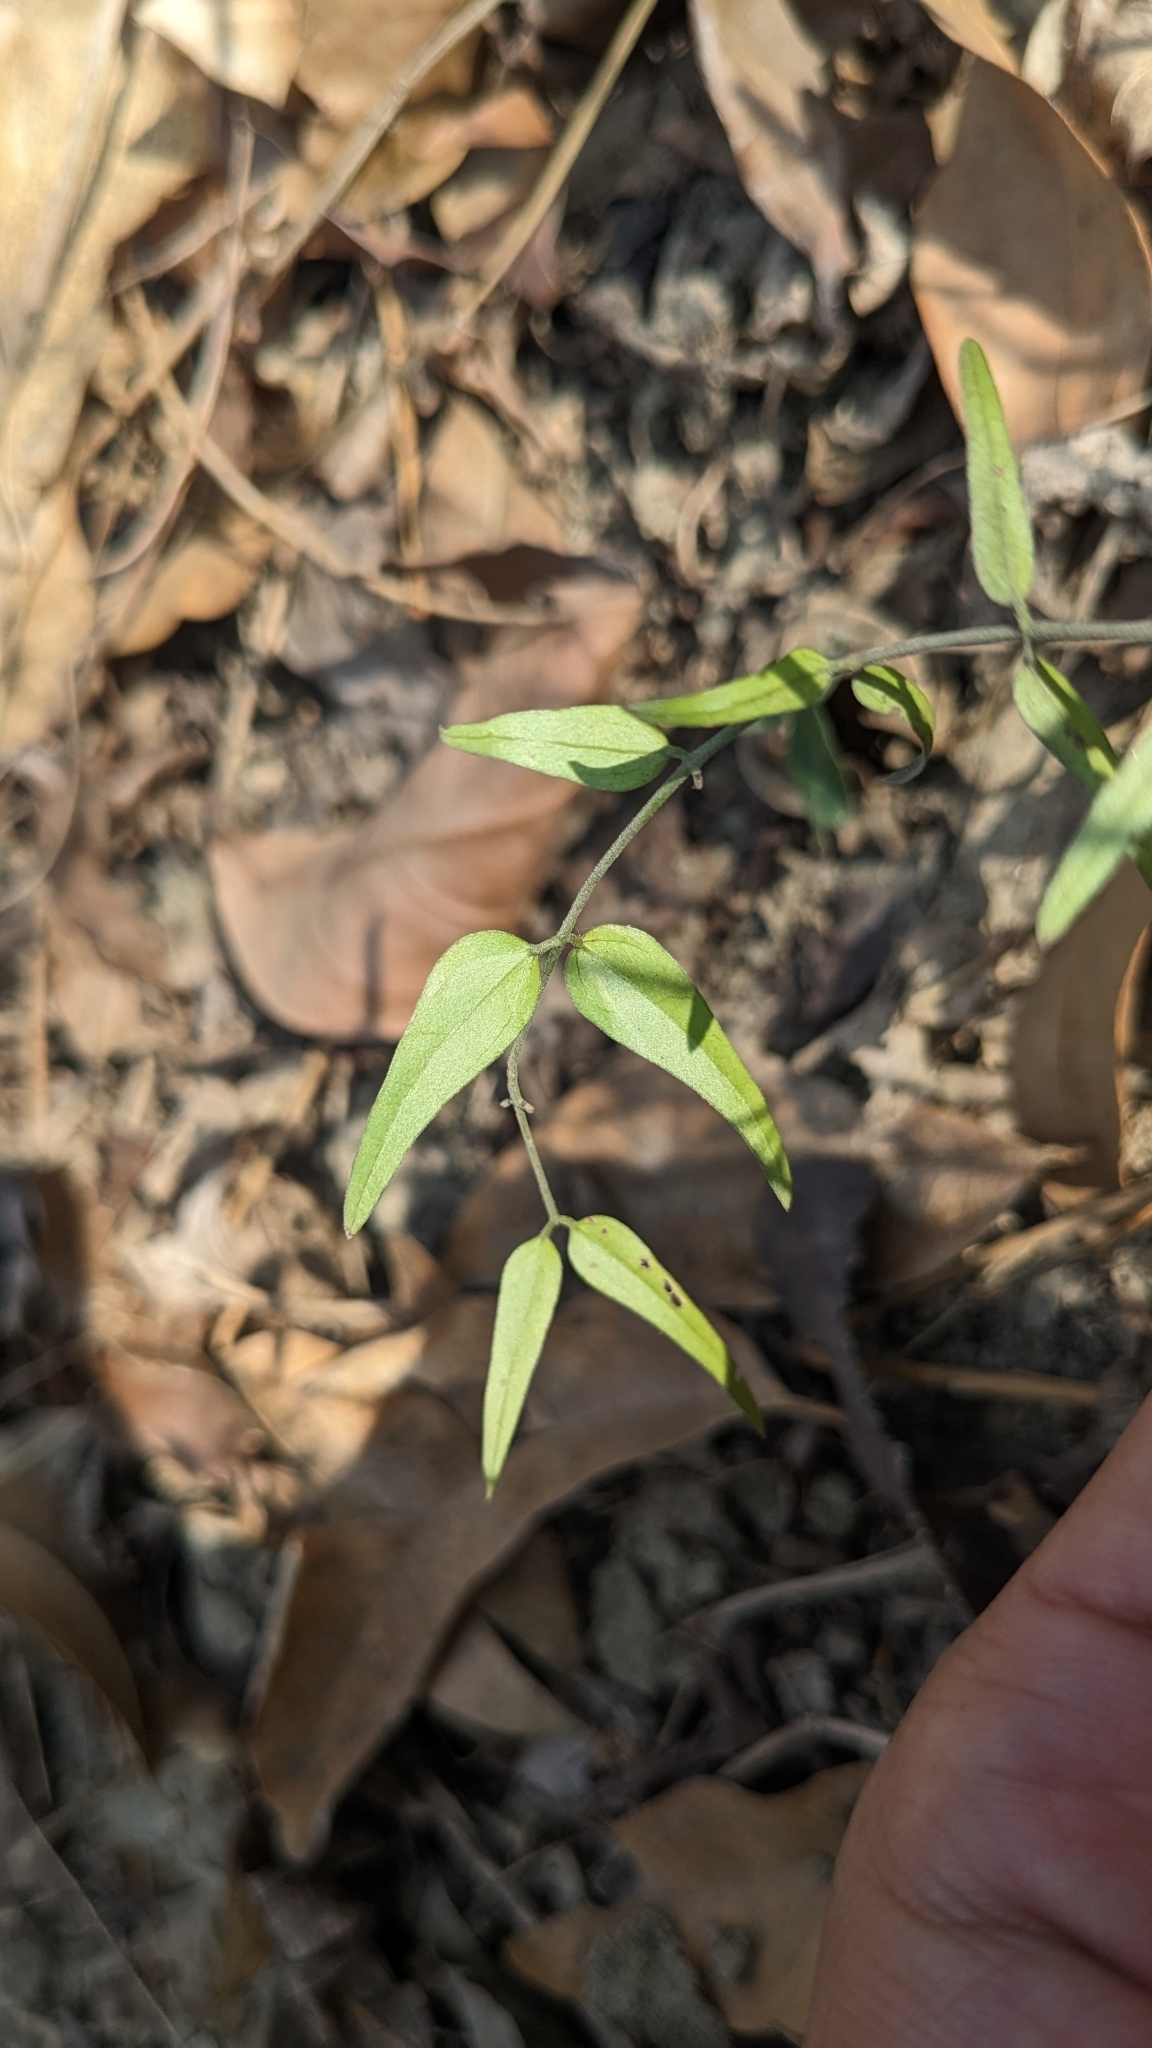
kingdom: Plantae
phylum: Tracheophyta
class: Magnoliopsida
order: Lamiales
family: Oleaceae
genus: Jasminum
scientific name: Jasminum nervosum
